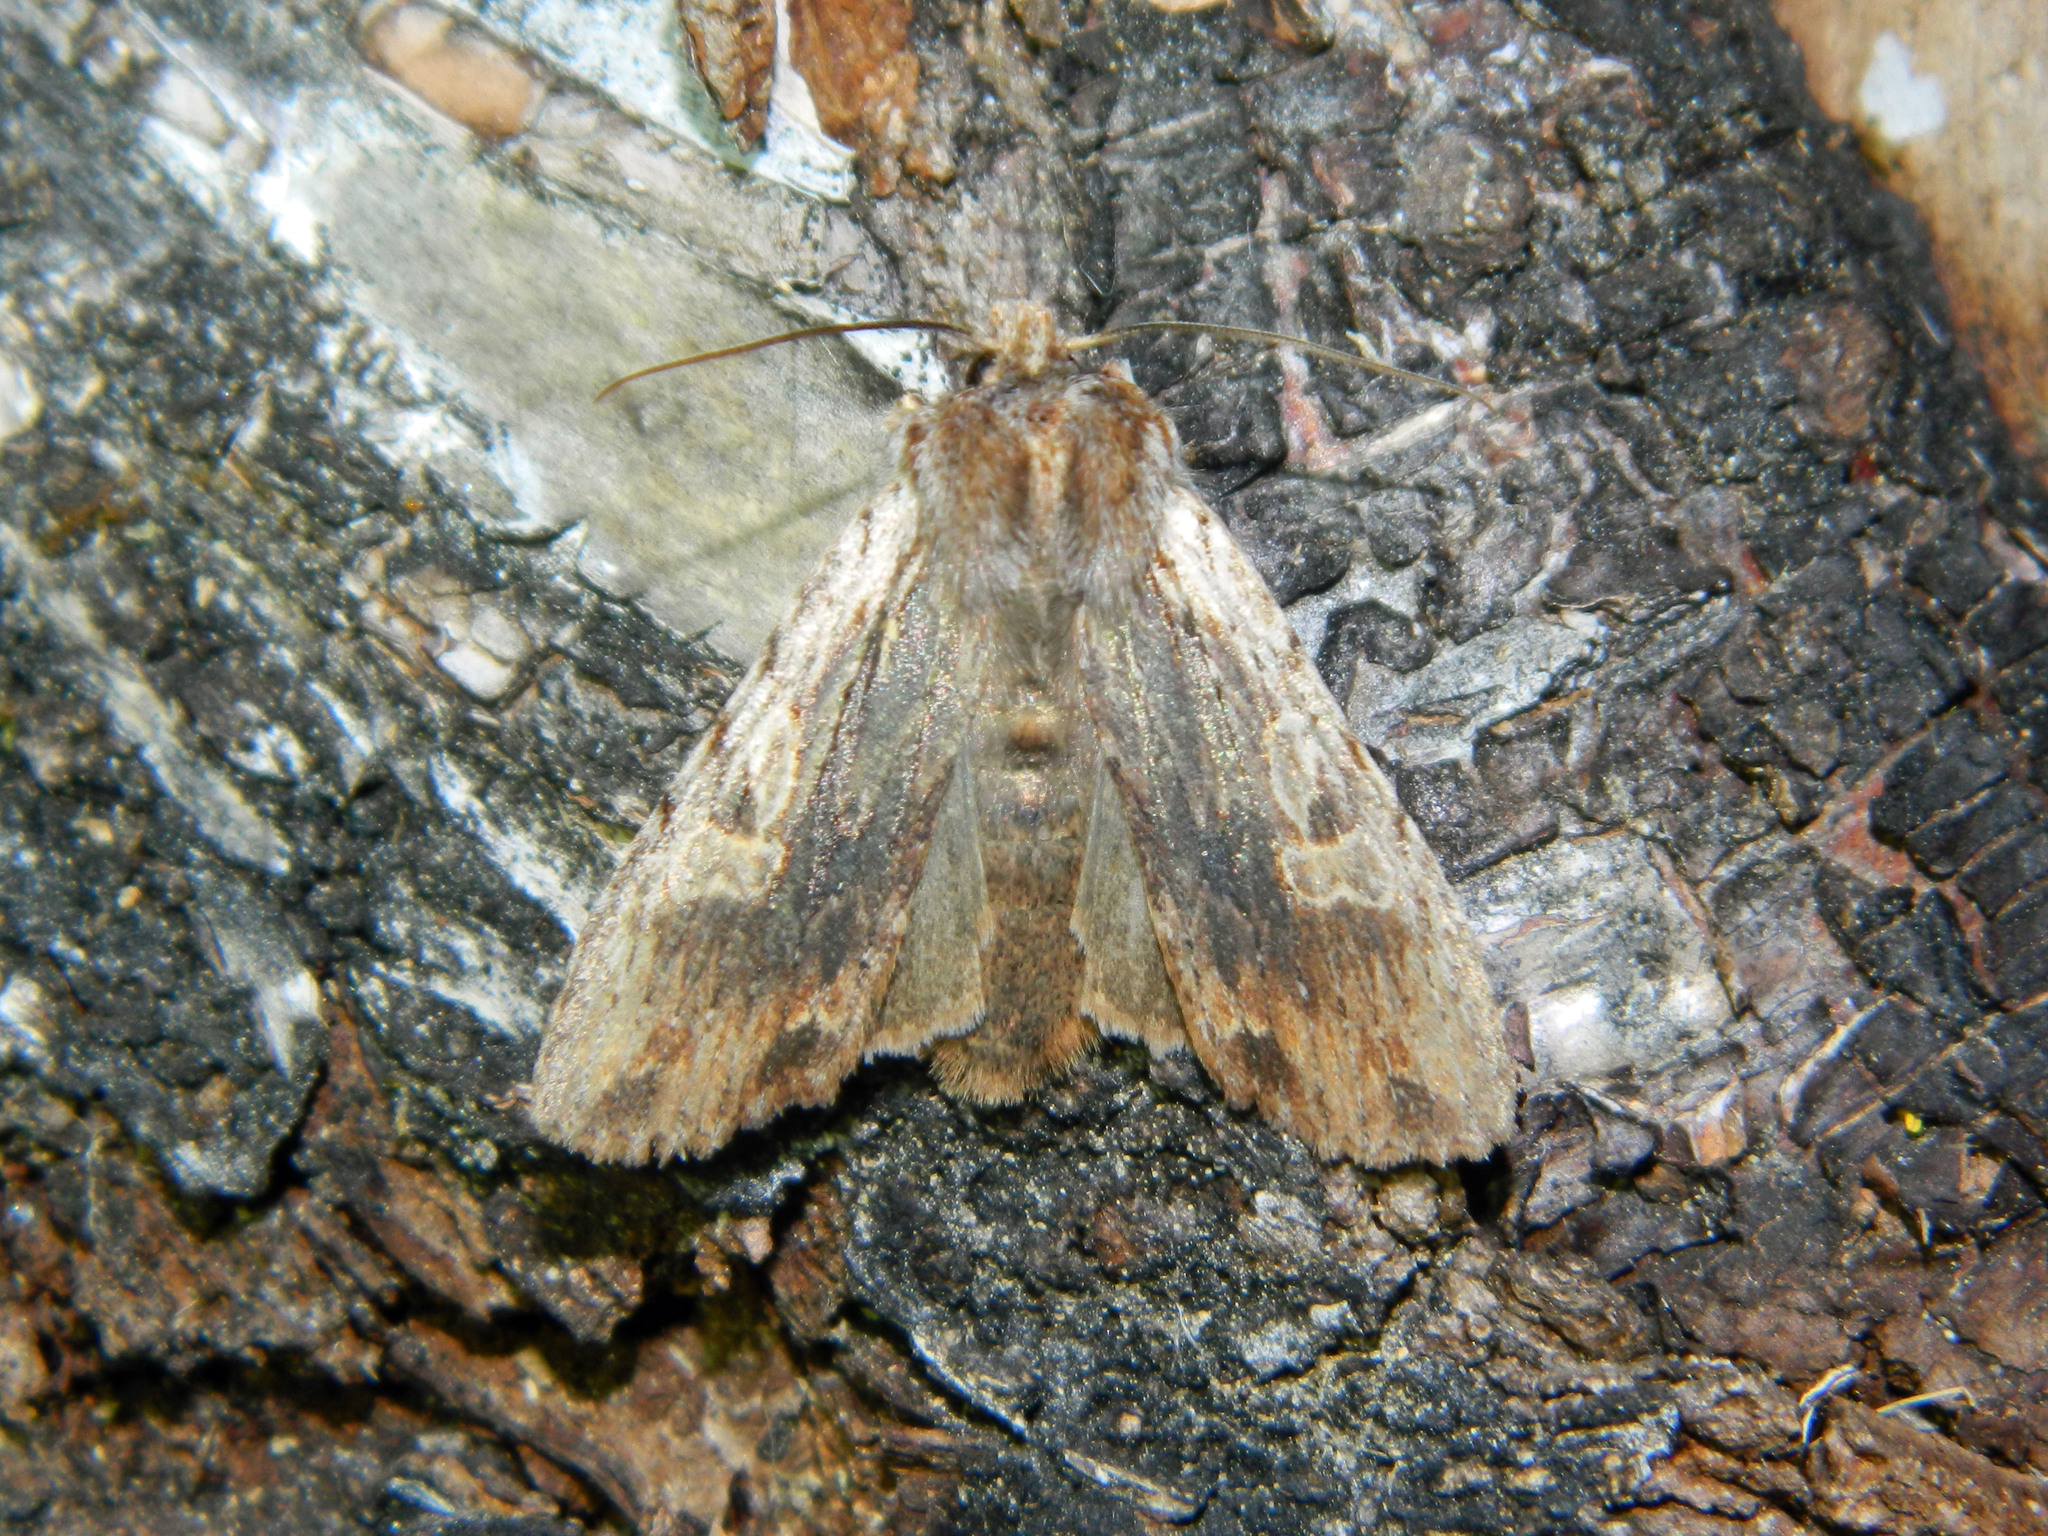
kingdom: Animalia
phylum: Arthropoda
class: Insecta
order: Lepidoptera
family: Noctuidae
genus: Lithophane
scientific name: Lithophane petulca
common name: Wanton pinion
